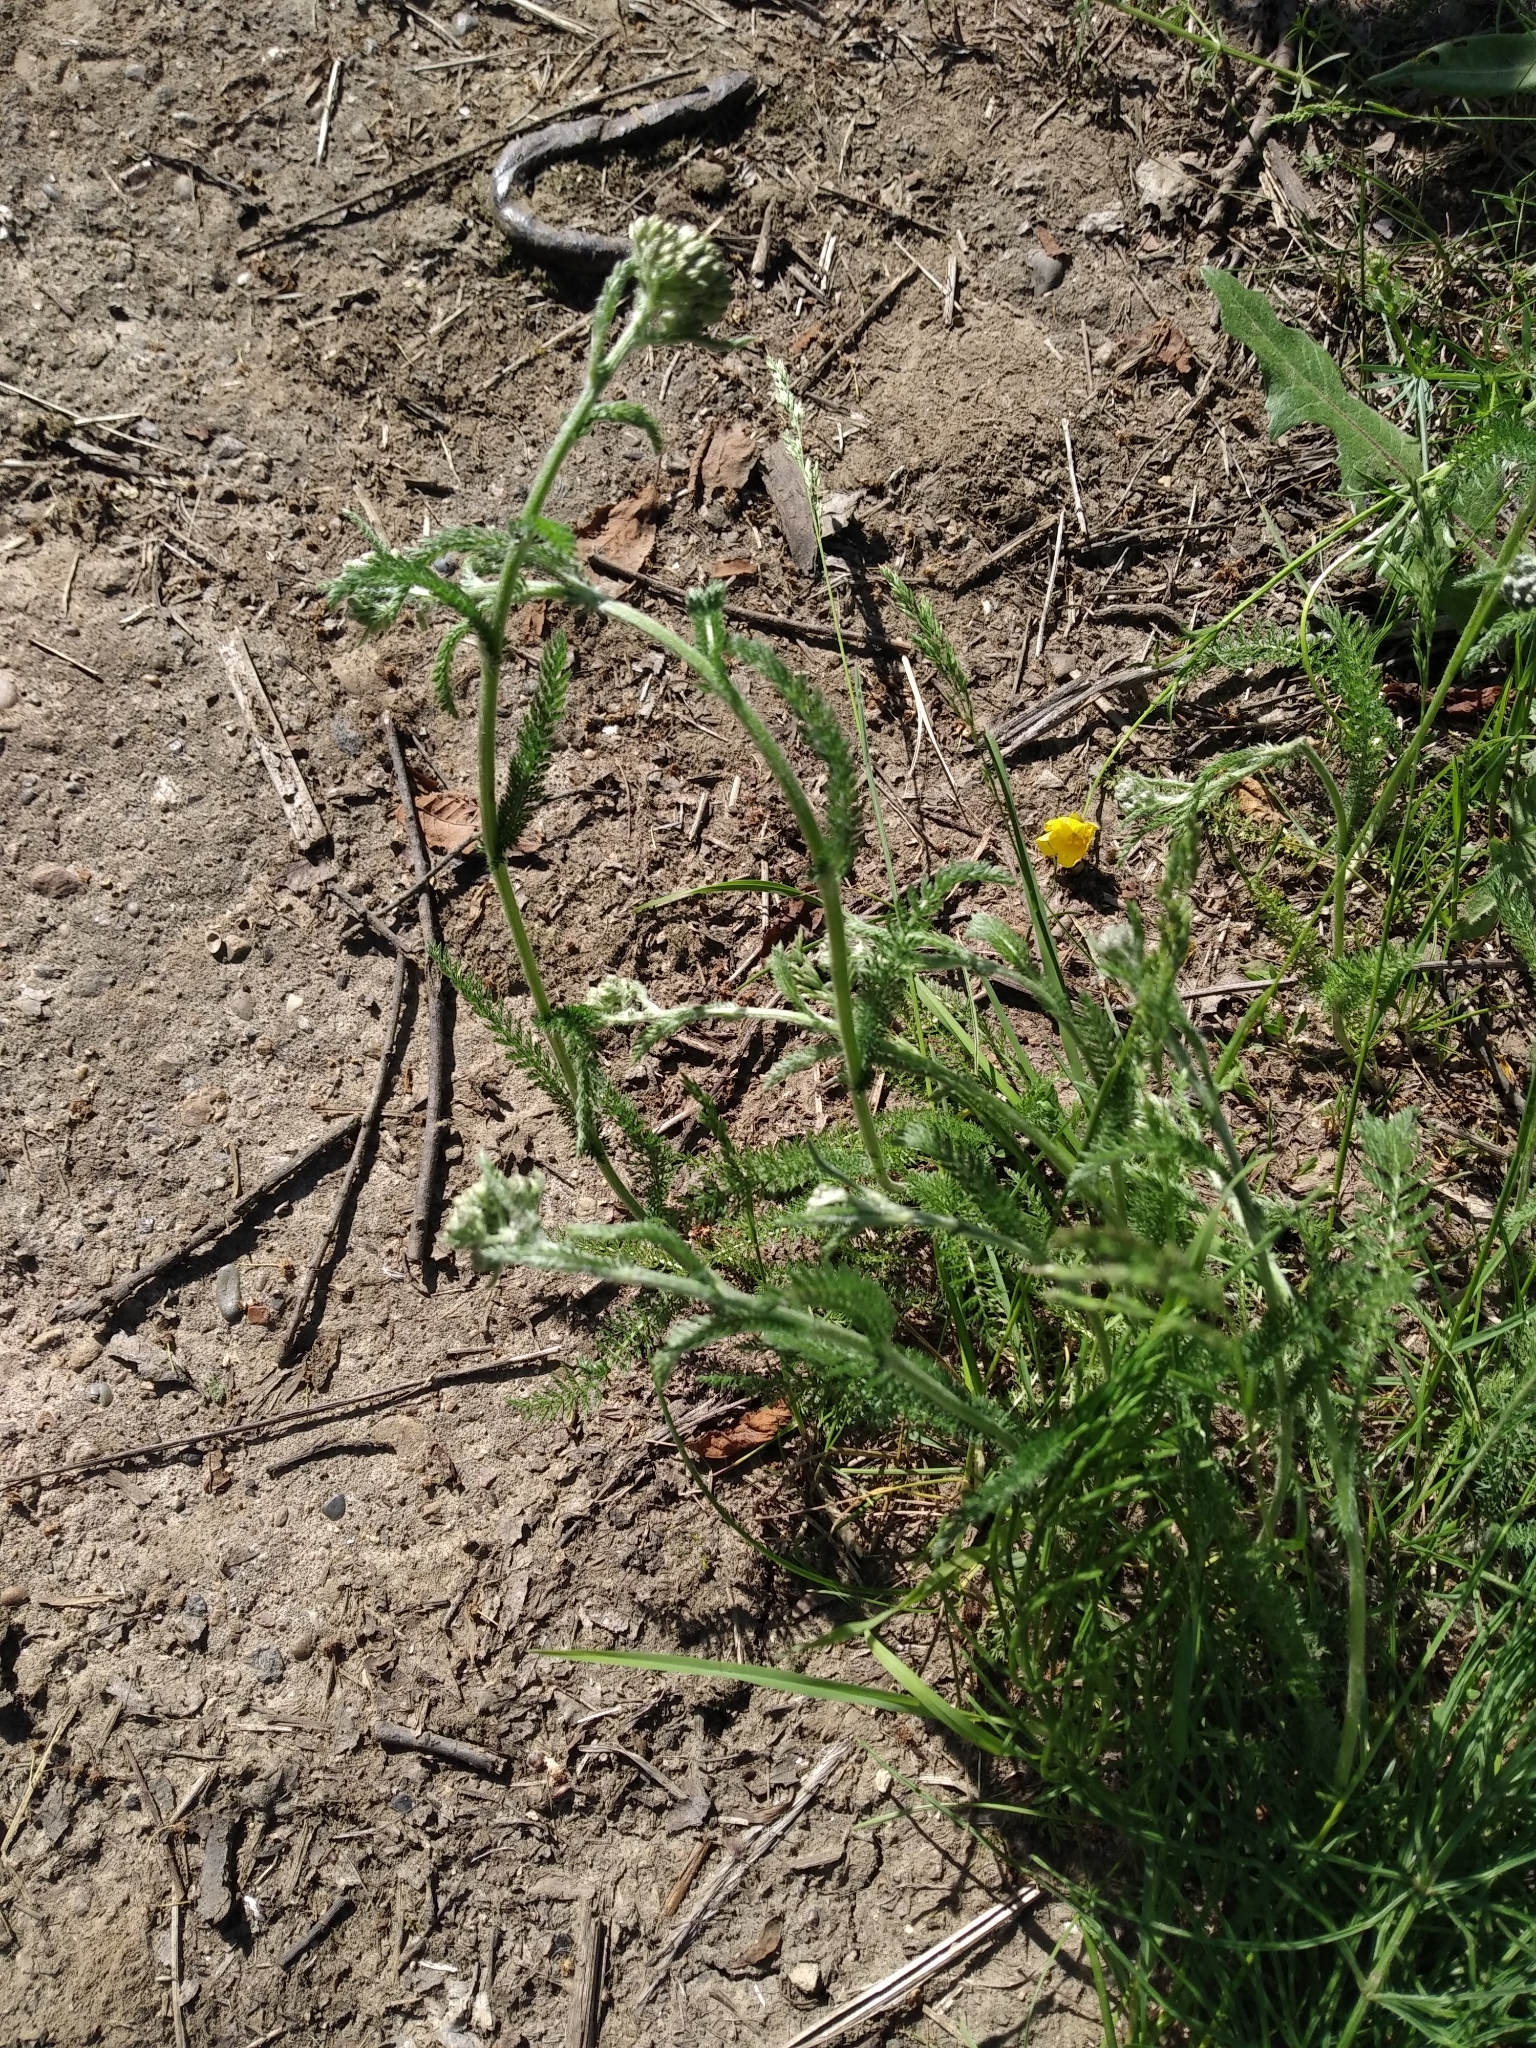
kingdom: Plantae
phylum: Tracheophyta
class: Magnoliopsida
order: Asterales
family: Asteraceae
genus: Achillea
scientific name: Achillea millefolium
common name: Yarrow
